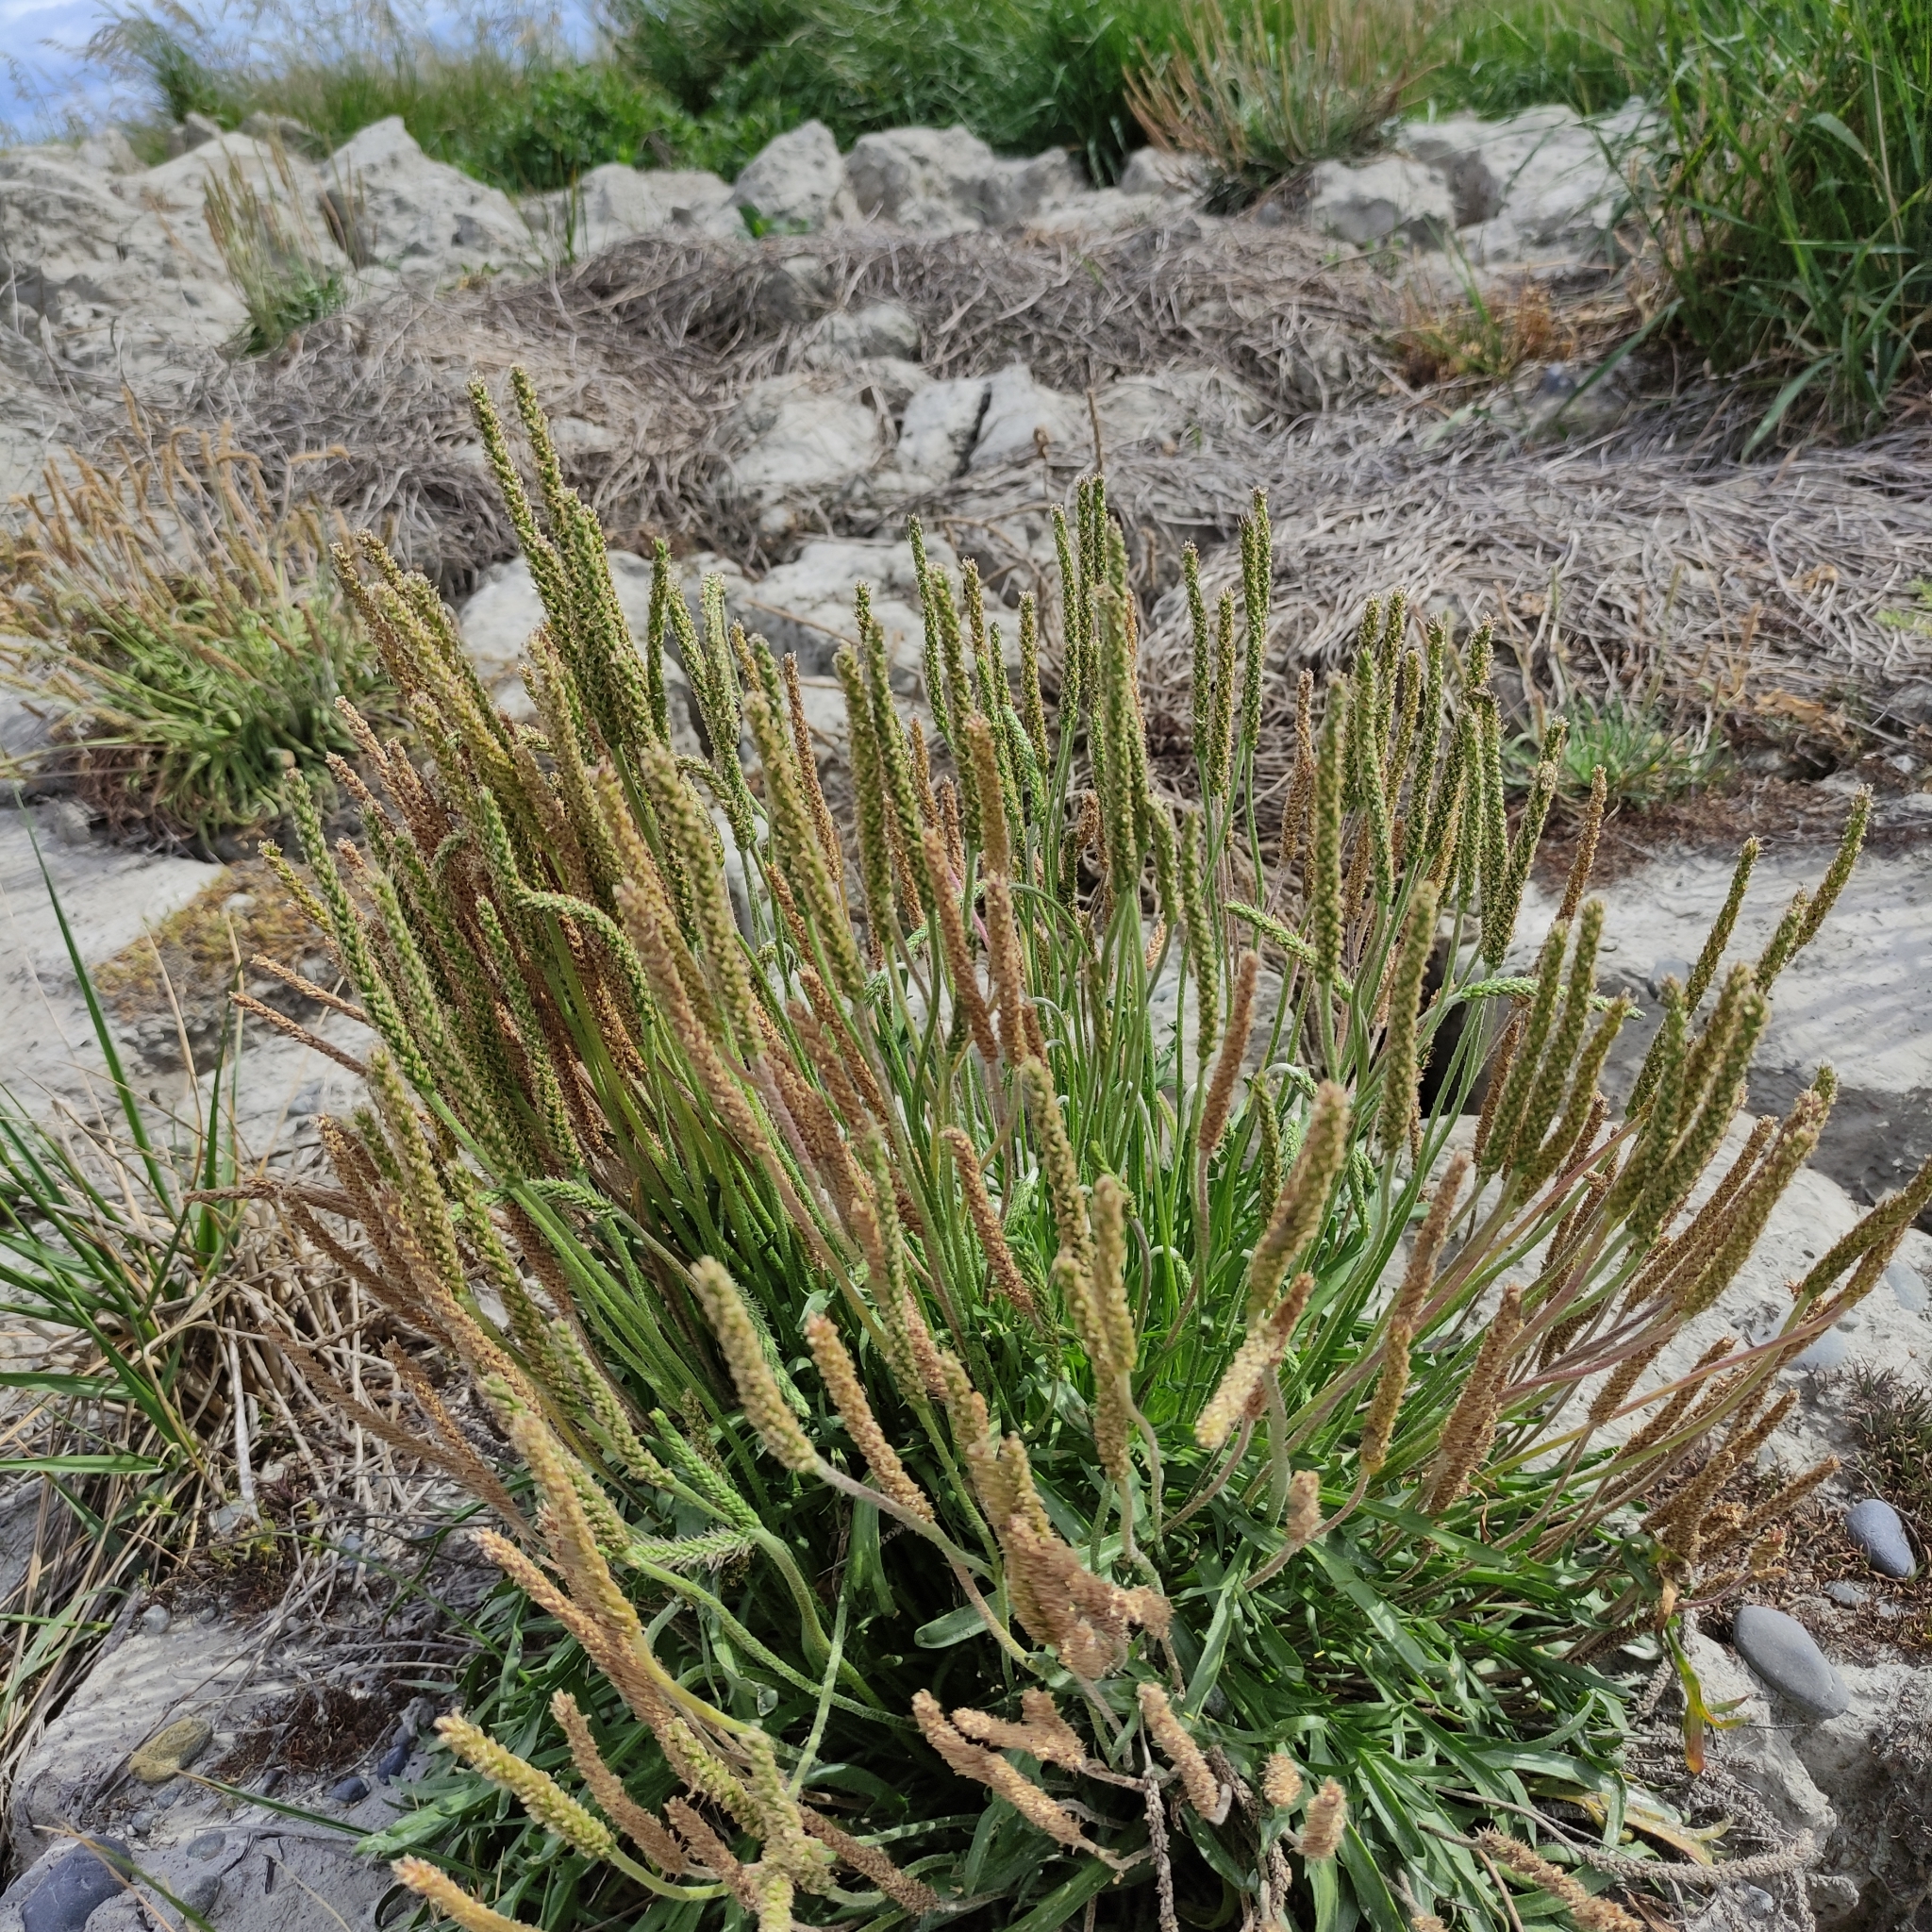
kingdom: Plantae
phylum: Tracheophyta
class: Magnoliopsida
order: Lamiales
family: Plantaginaceae
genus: Plantago
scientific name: Plantago coronopus
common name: Buck's-horn plantain
